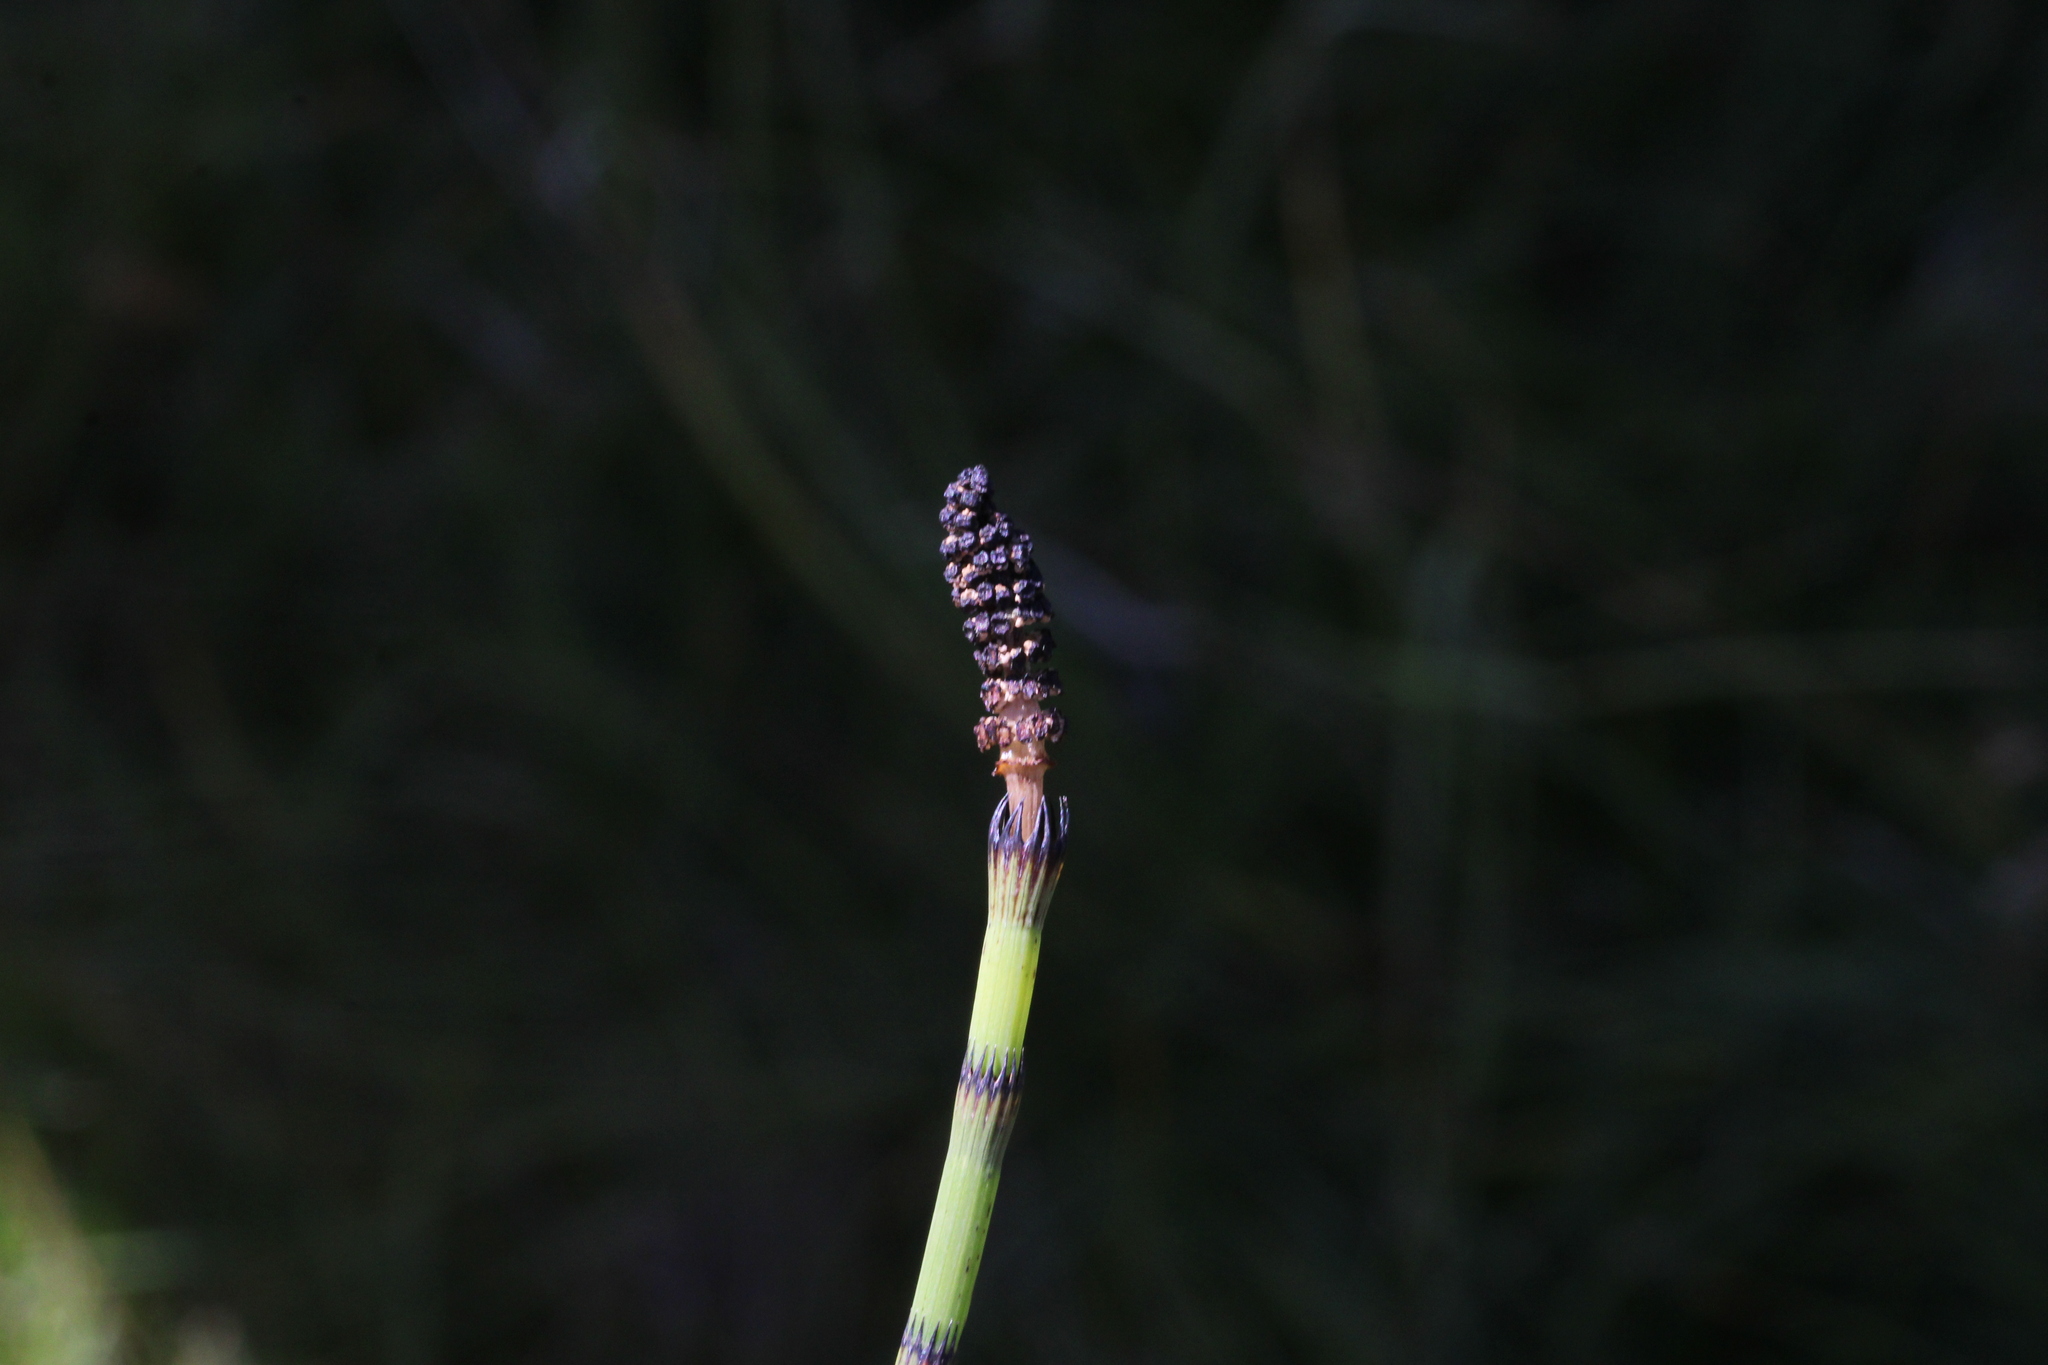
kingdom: Plantae
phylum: Tracheophyta
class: Polypodiopsida
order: Equisetales
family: Equisetaceae
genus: Equisetum
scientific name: Equisetum fluviatile
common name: Water horsetail
